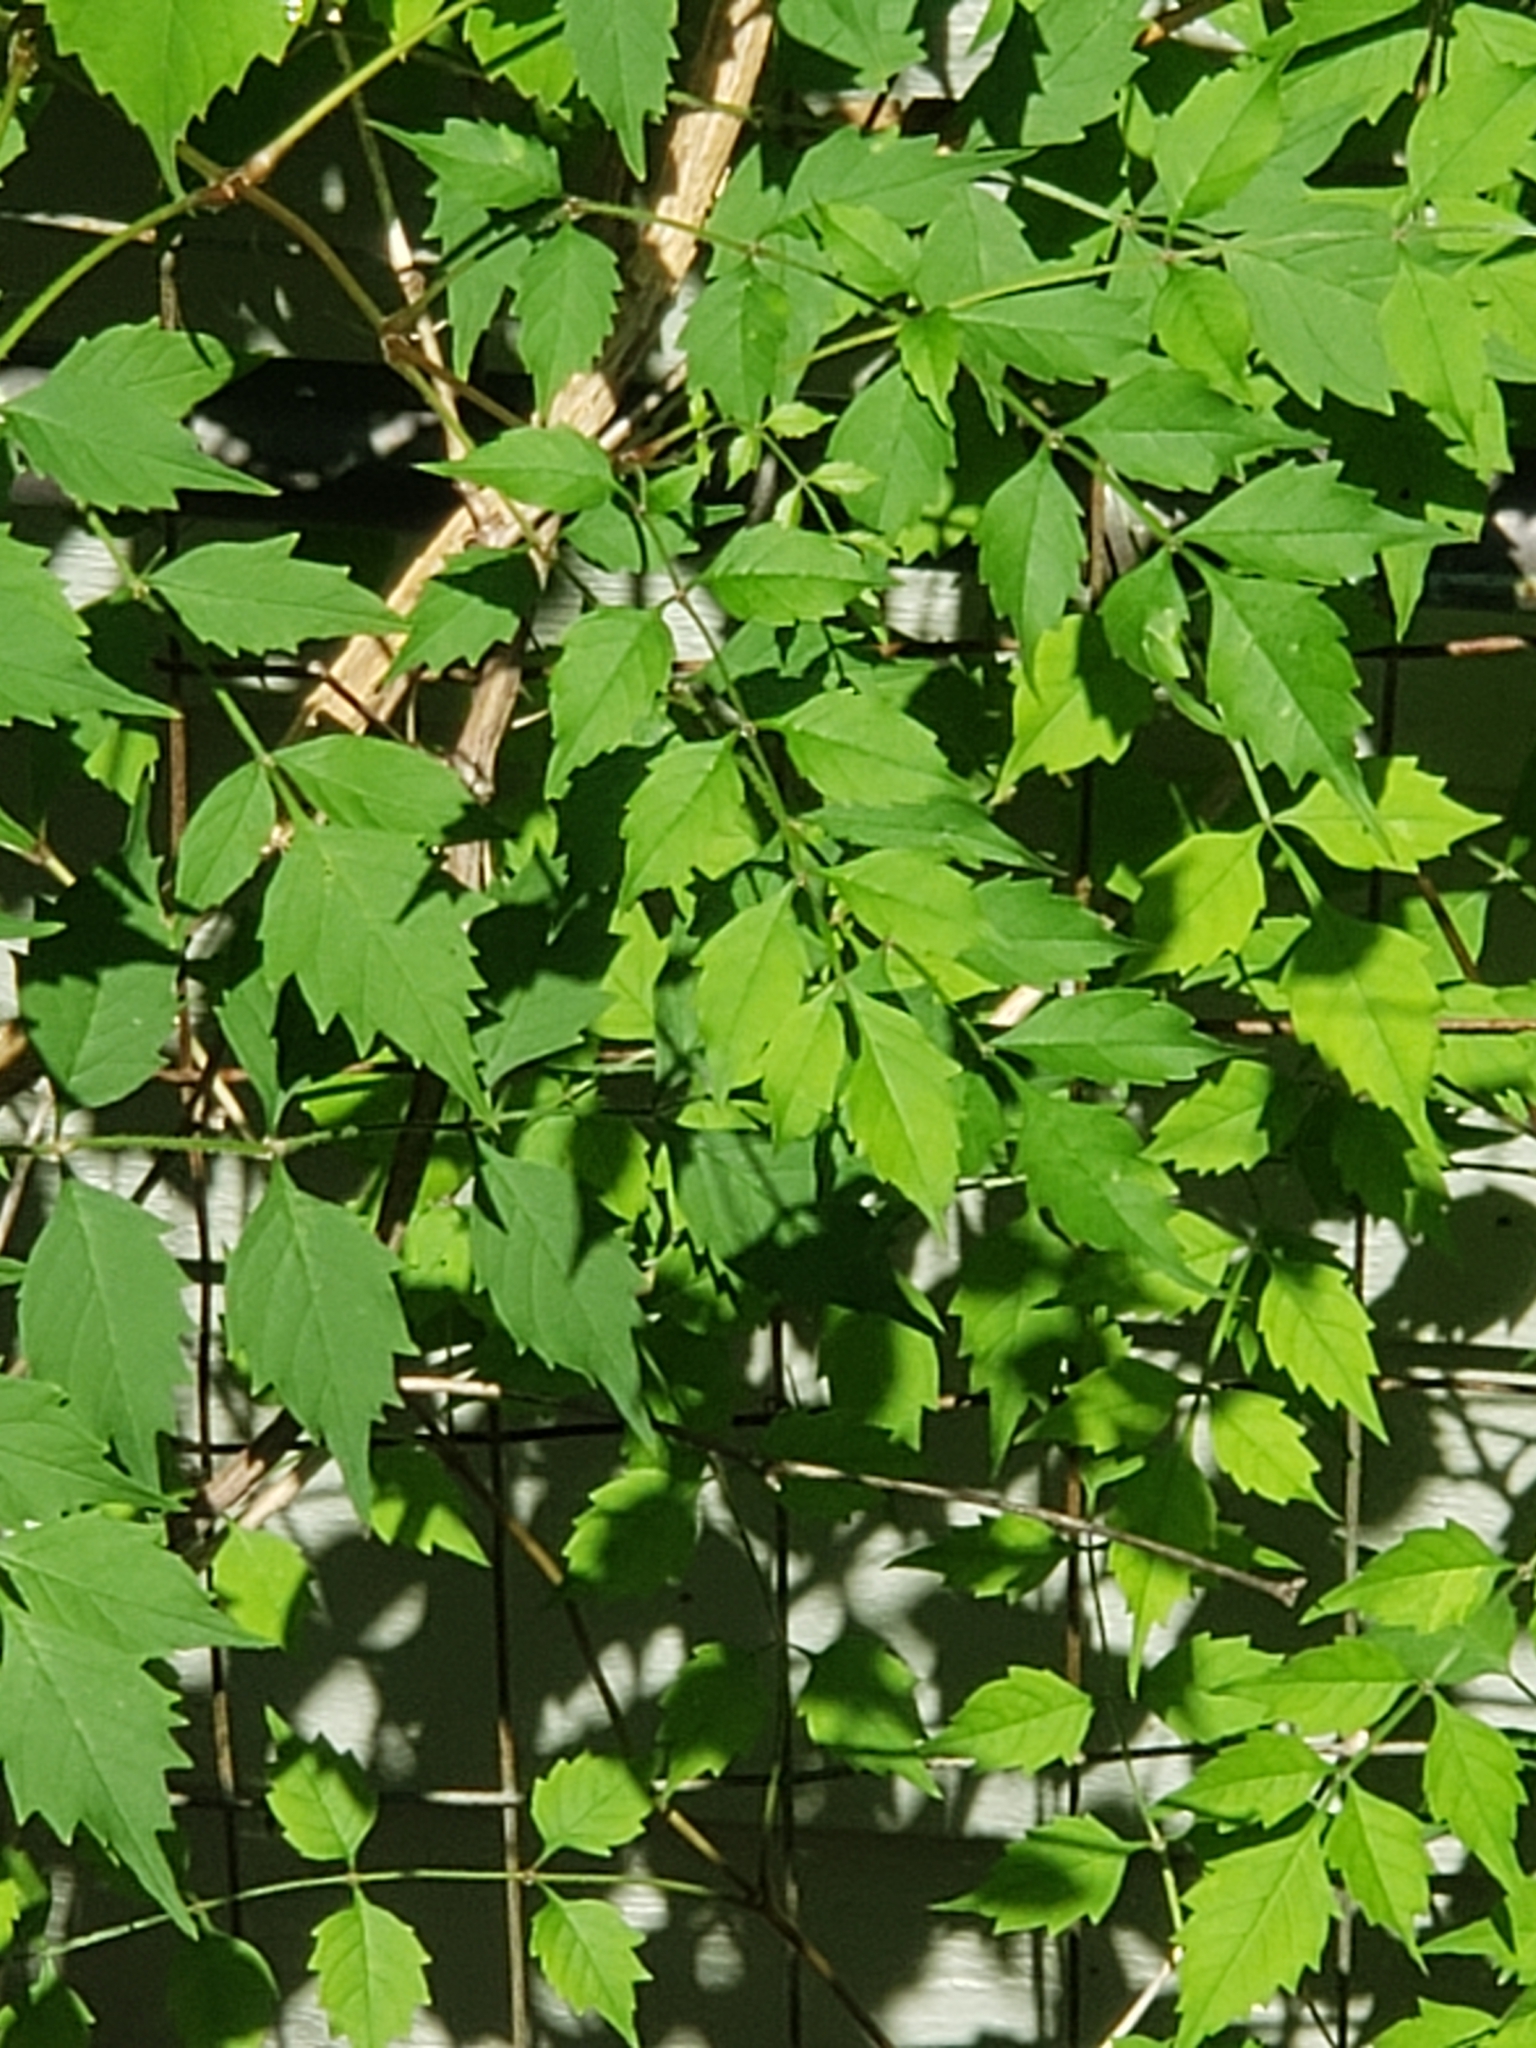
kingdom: Plantae
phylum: Tracheophyta
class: Magnoliopsida
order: Lamiales
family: Bignoniaceae
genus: Campsis
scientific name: Campsis radicans
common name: Trumpet-creeper
